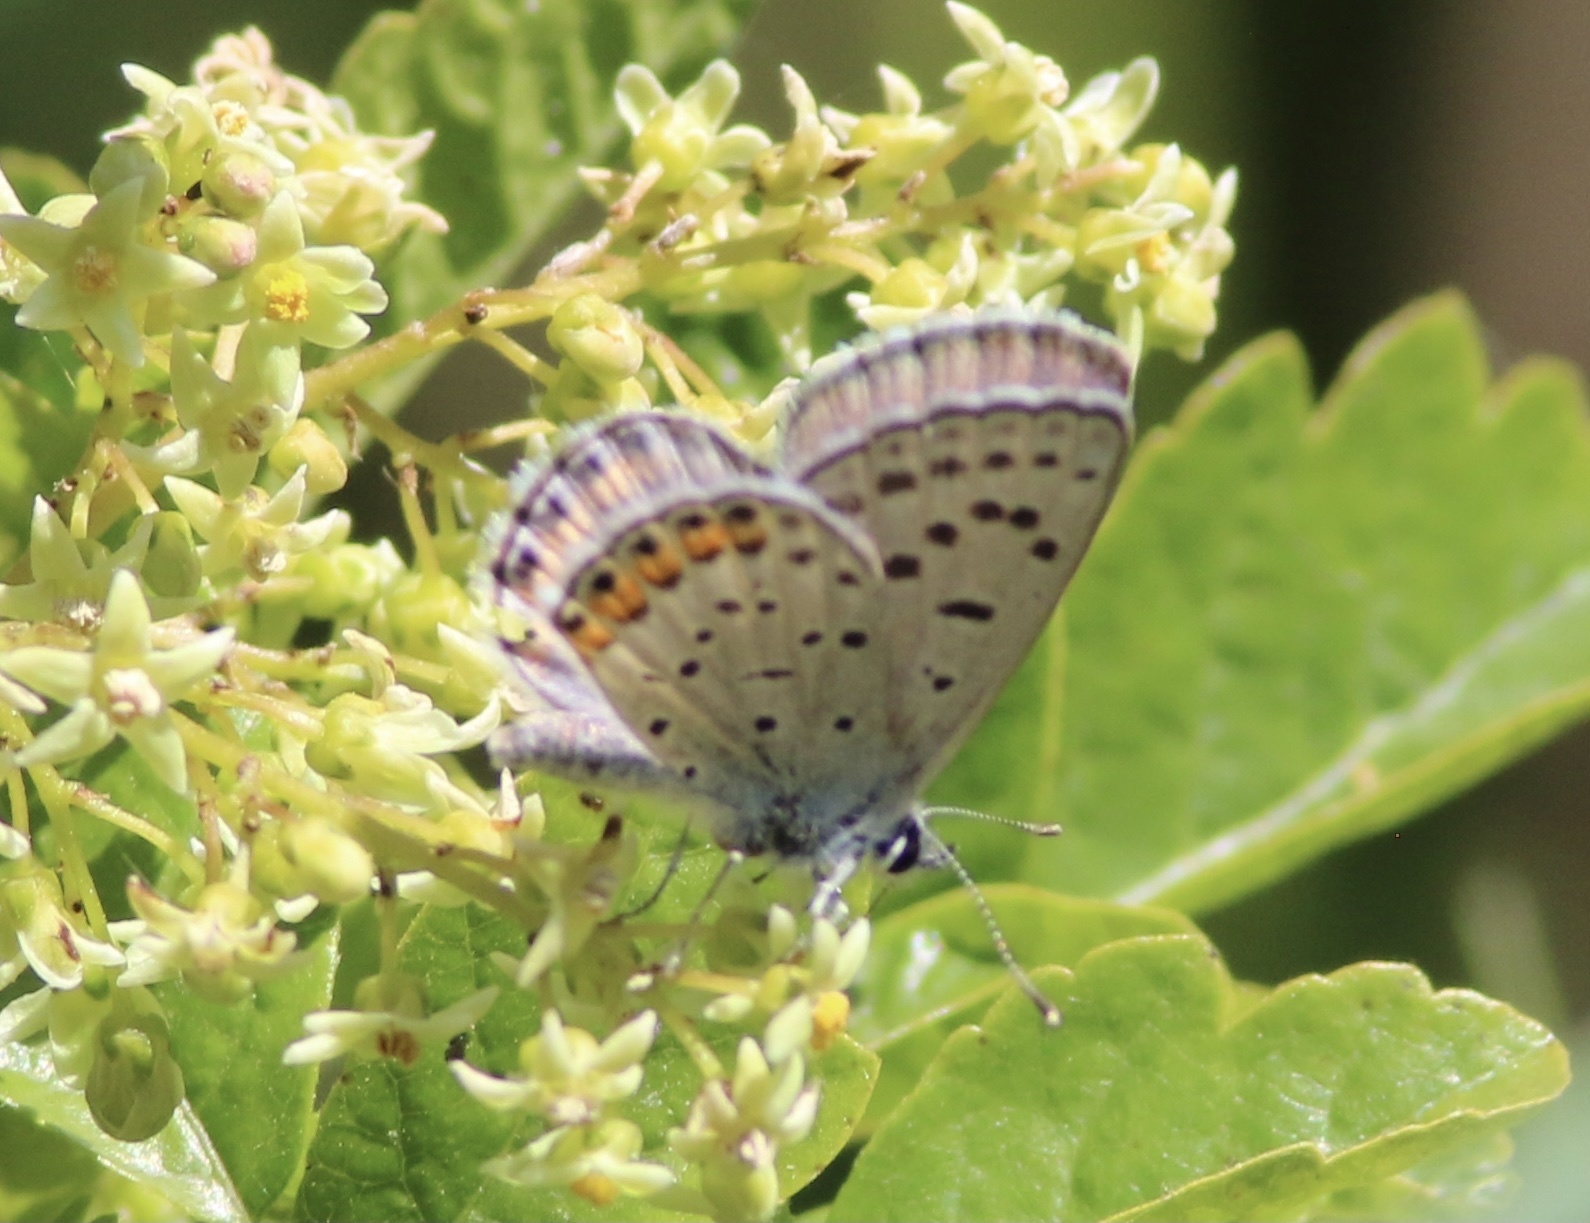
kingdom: Animalia
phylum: Arthropoda
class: Insecta
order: Lepidoptera
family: Lycaenidae
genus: Icaricia
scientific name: Icaricia acmon
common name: Acmon blue
